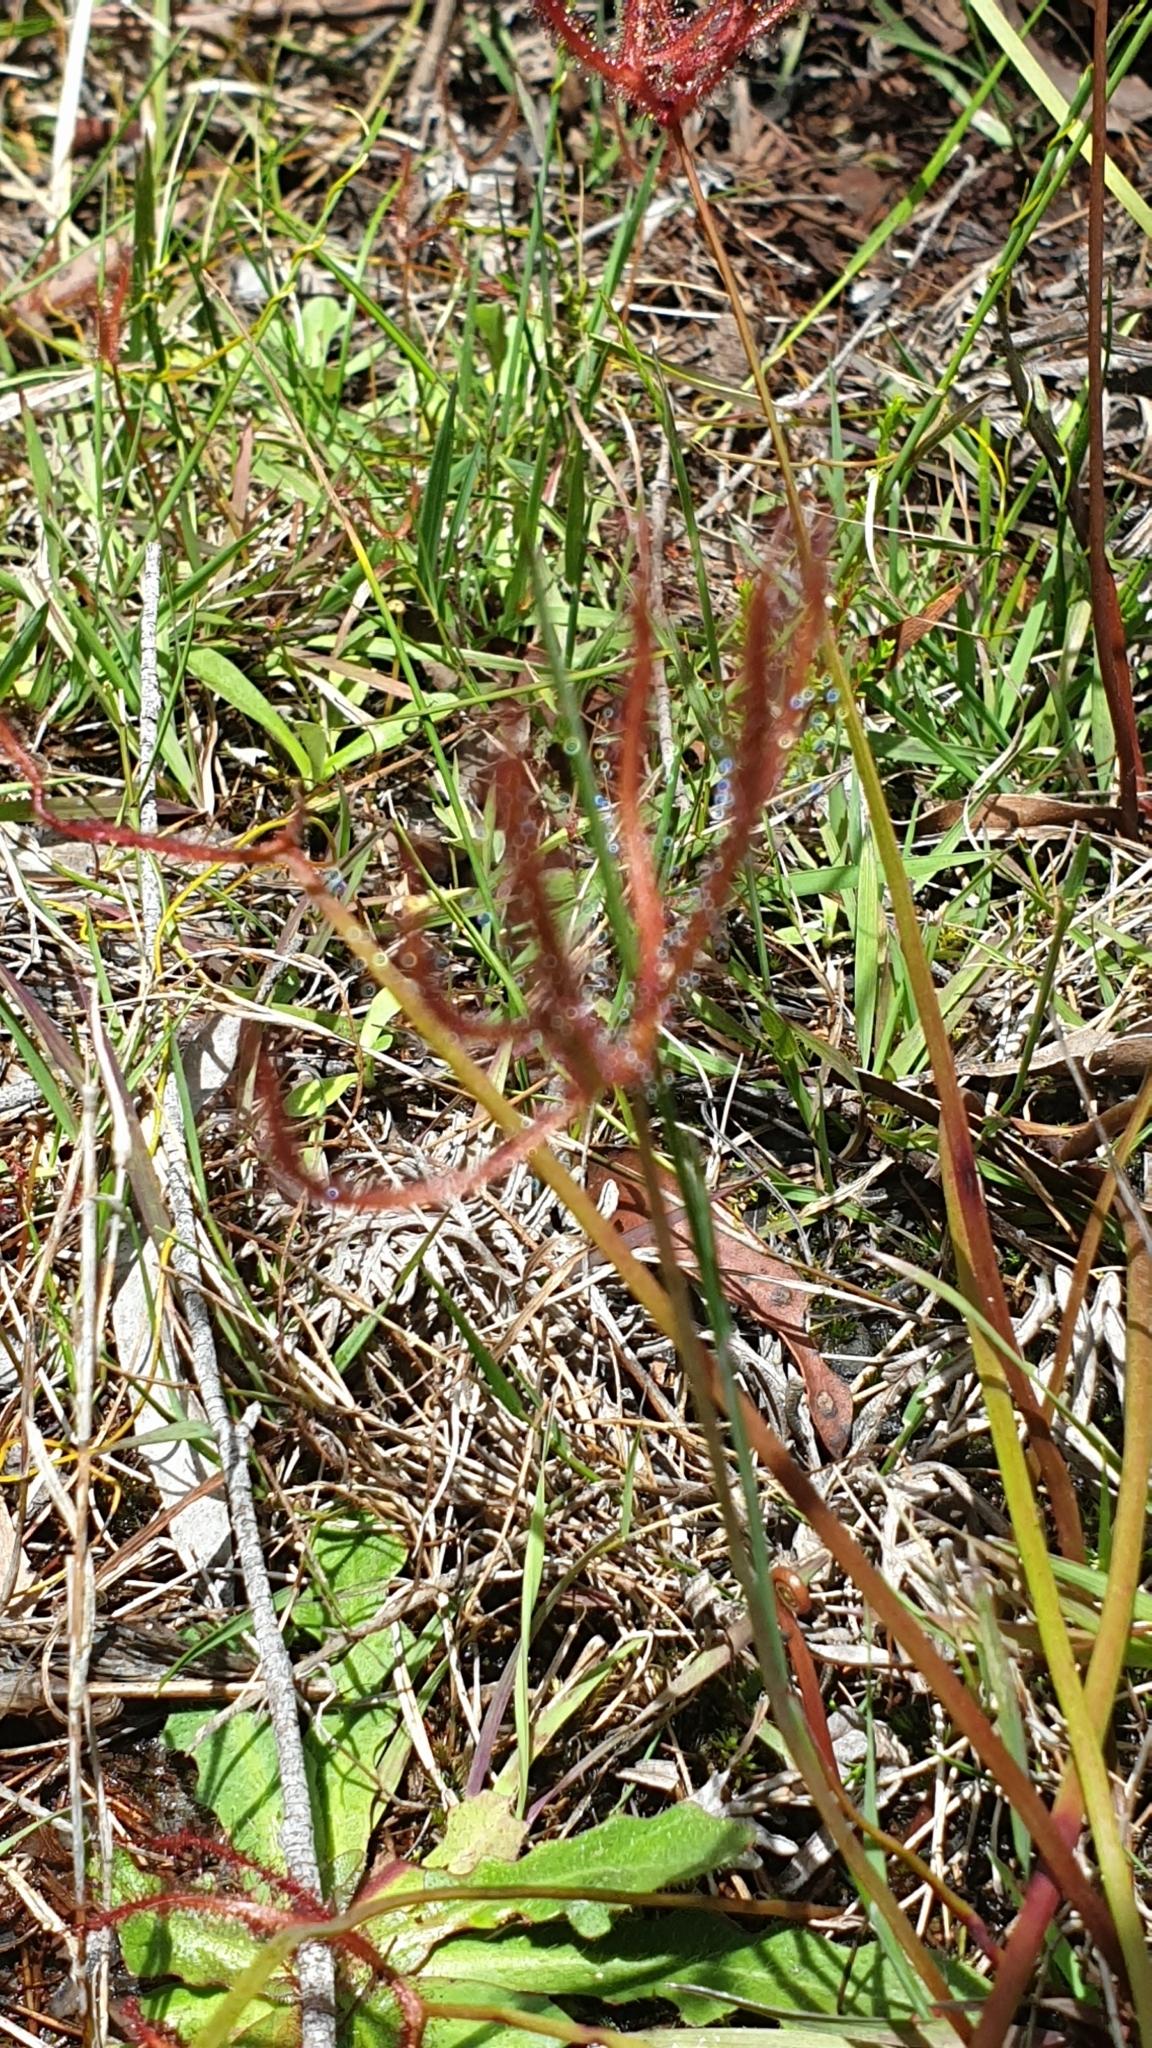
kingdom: Plantae
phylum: Tracheophyta
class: Magnoliopsida
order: Caryophyllales
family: Droseraceae
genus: Drosera
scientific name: Drosera binata
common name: Forked sundew
